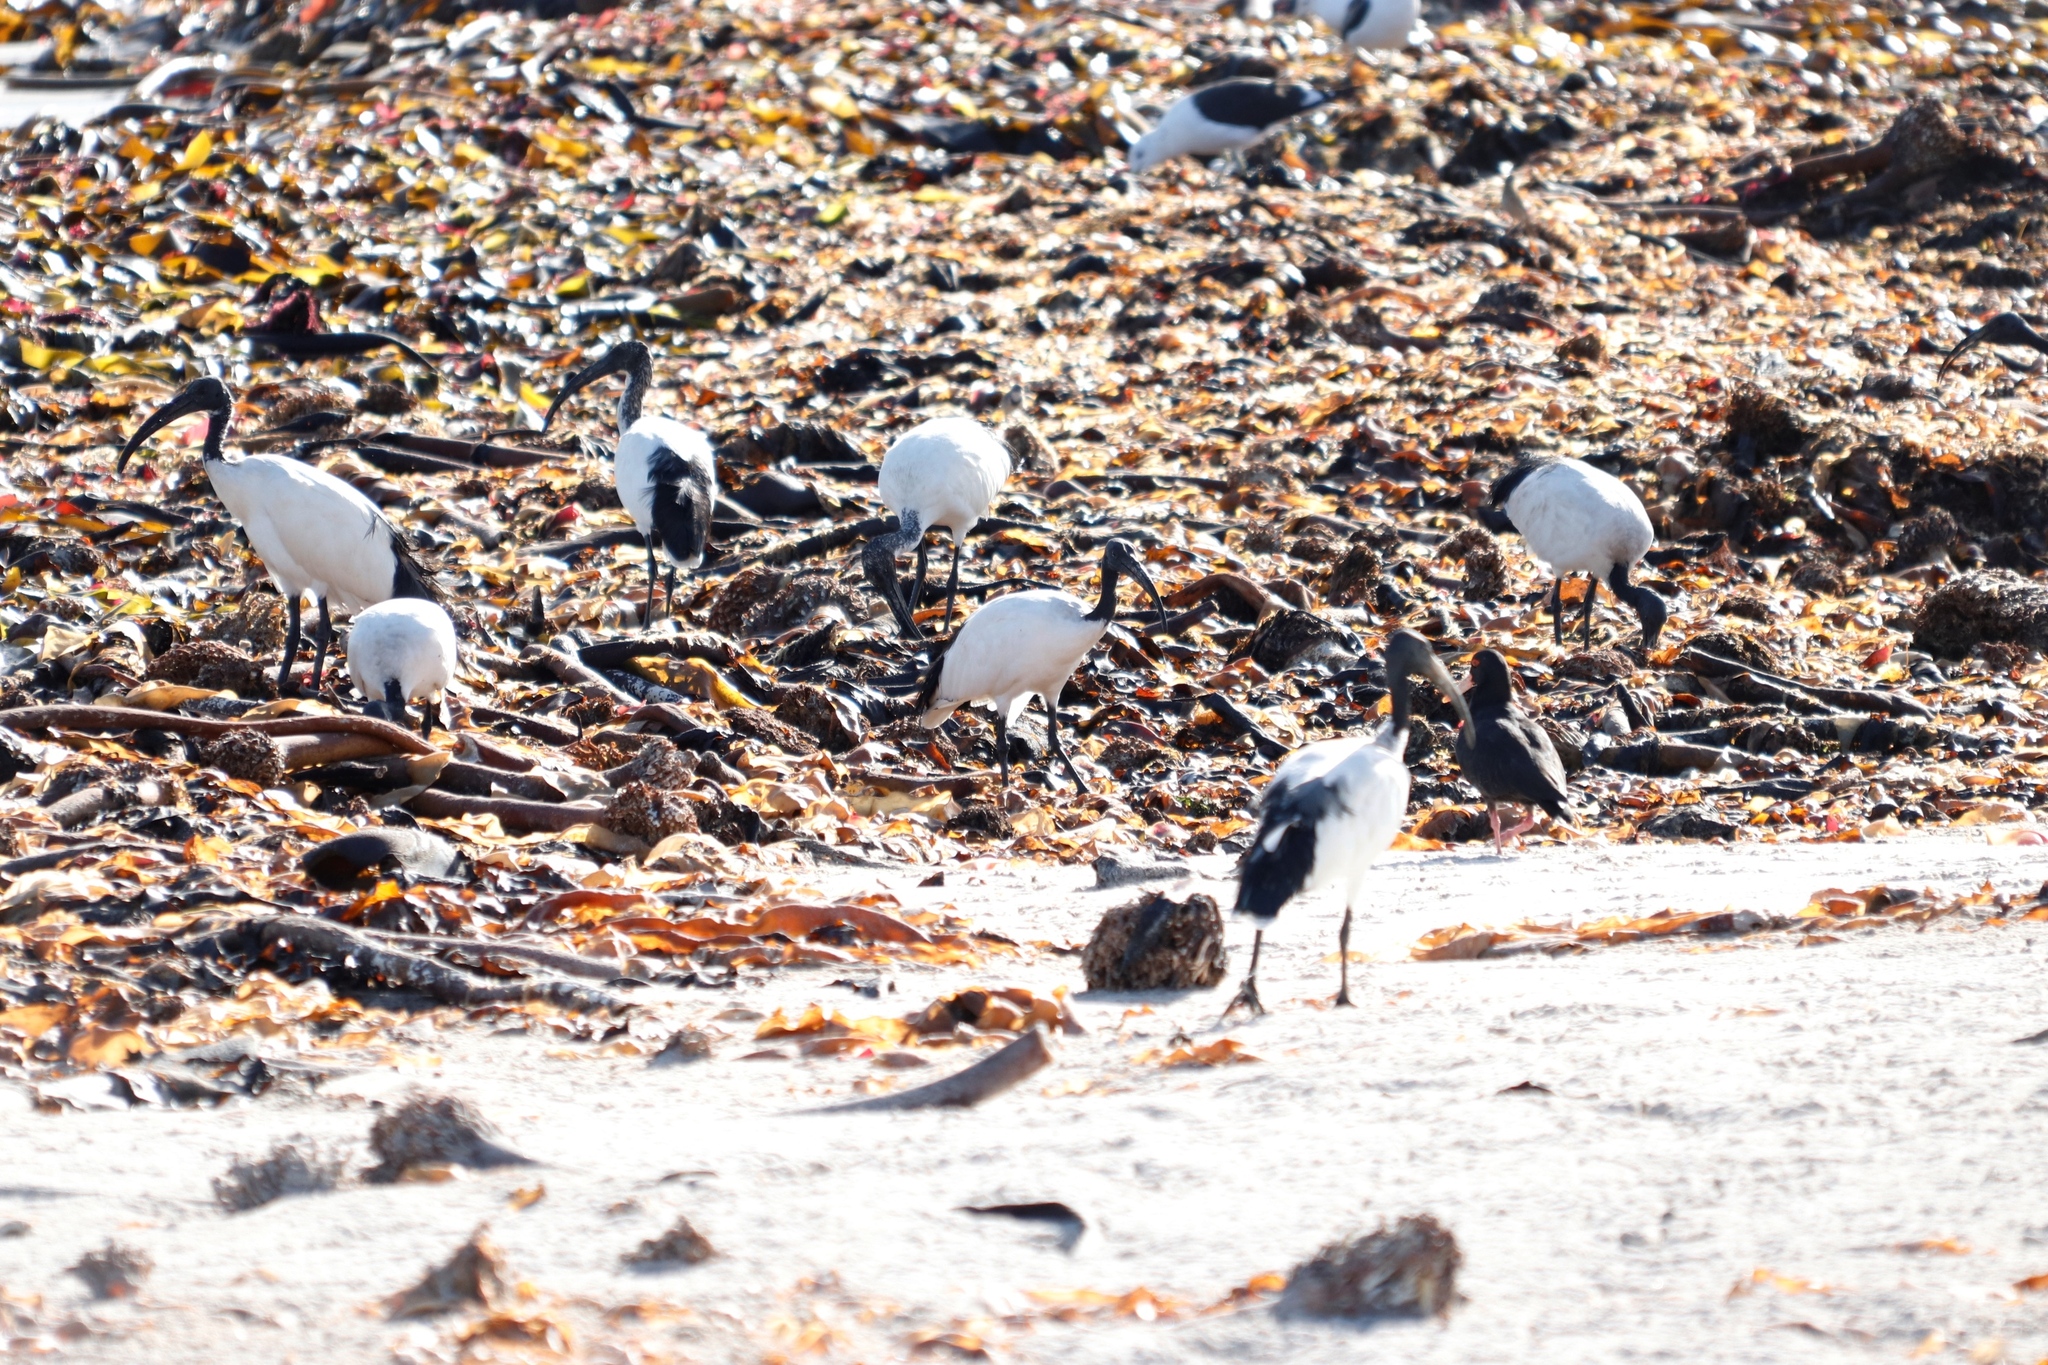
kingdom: Animalia
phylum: Chordata
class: Aves
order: Pelecaniformes
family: Threskiornithidae
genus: Threskiornis
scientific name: Threskiornis aethiopicus
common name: Sacred ibis
